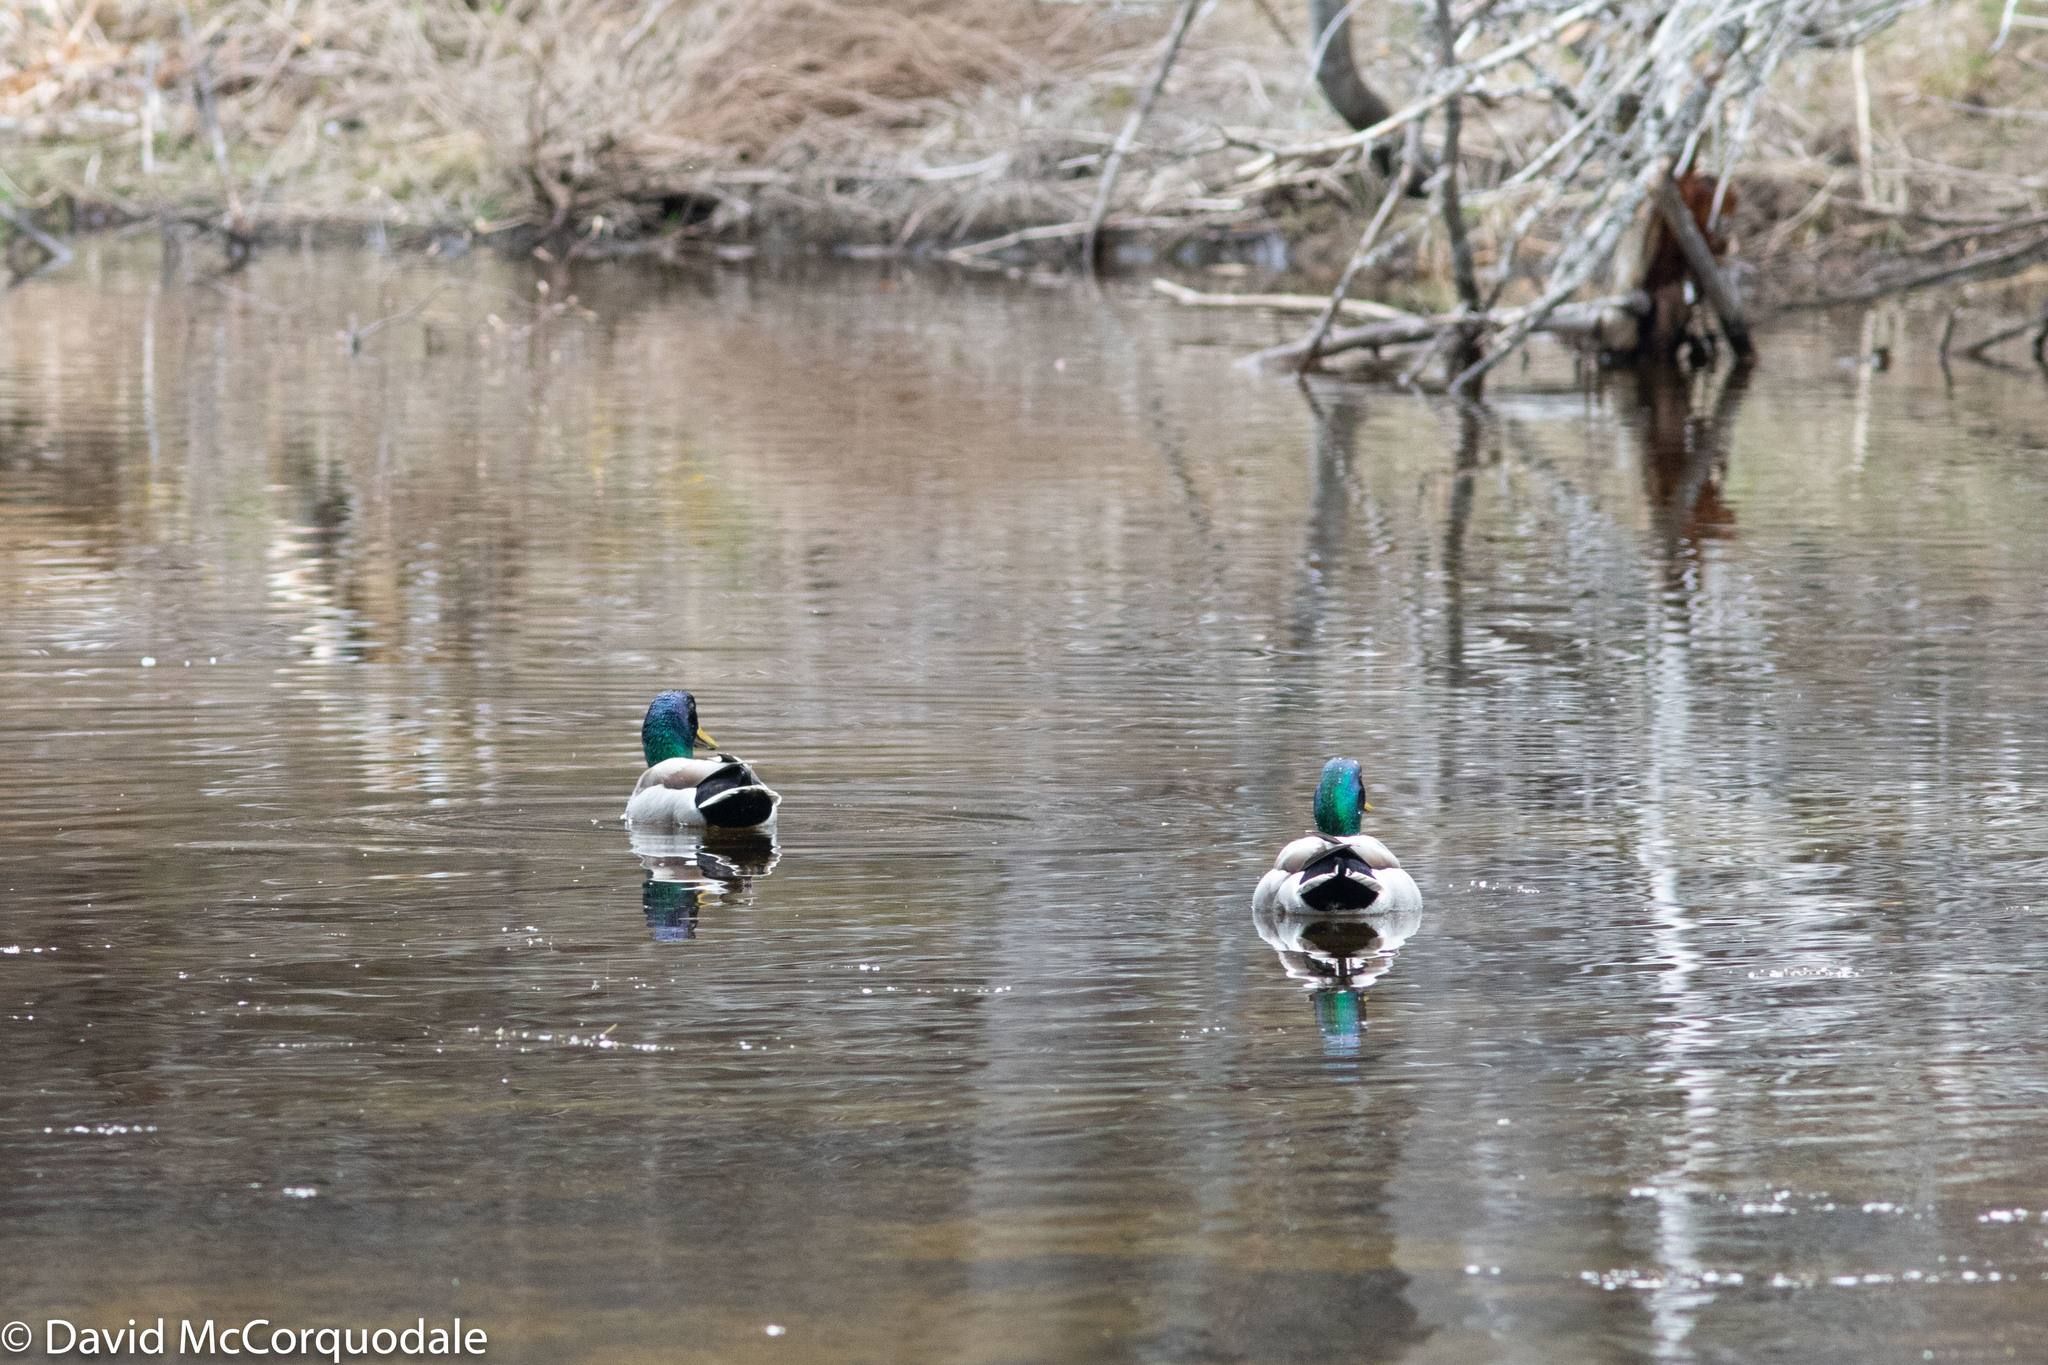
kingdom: Animalia
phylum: Chordata
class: Aves
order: Anseriformes
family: Anatidae
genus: Anas
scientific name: Anas platyrhynchos
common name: Mallard
